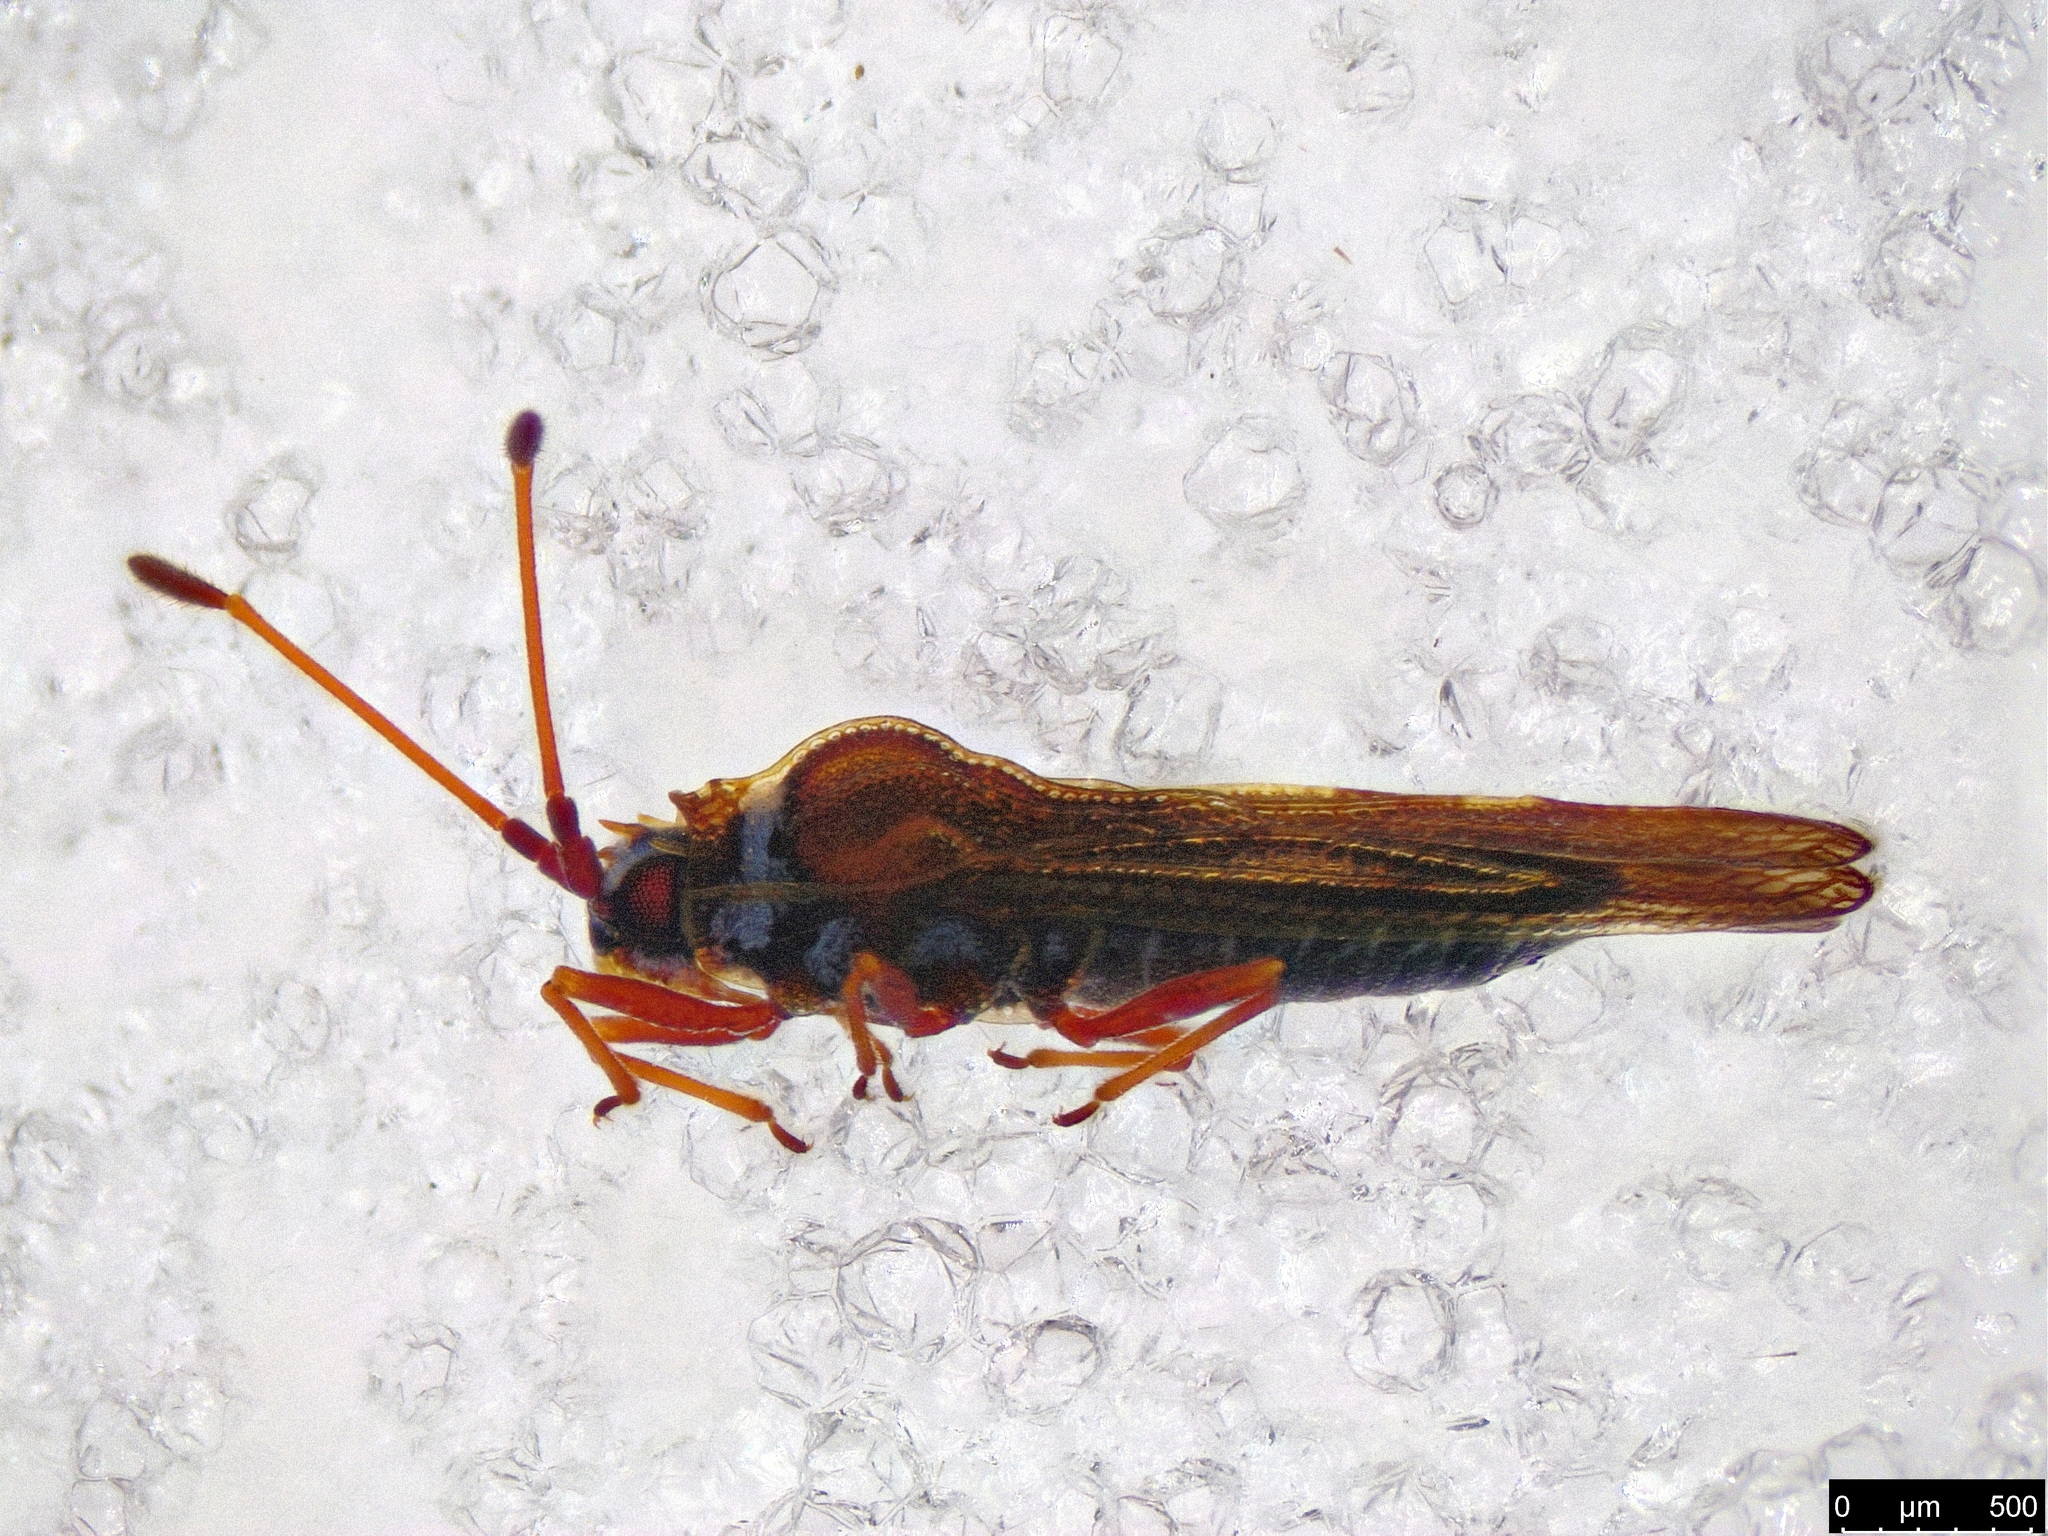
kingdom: Animalia
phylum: Arthropoda
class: Insecta
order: Hemiptera
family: Tingidae
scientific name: Tingidae
